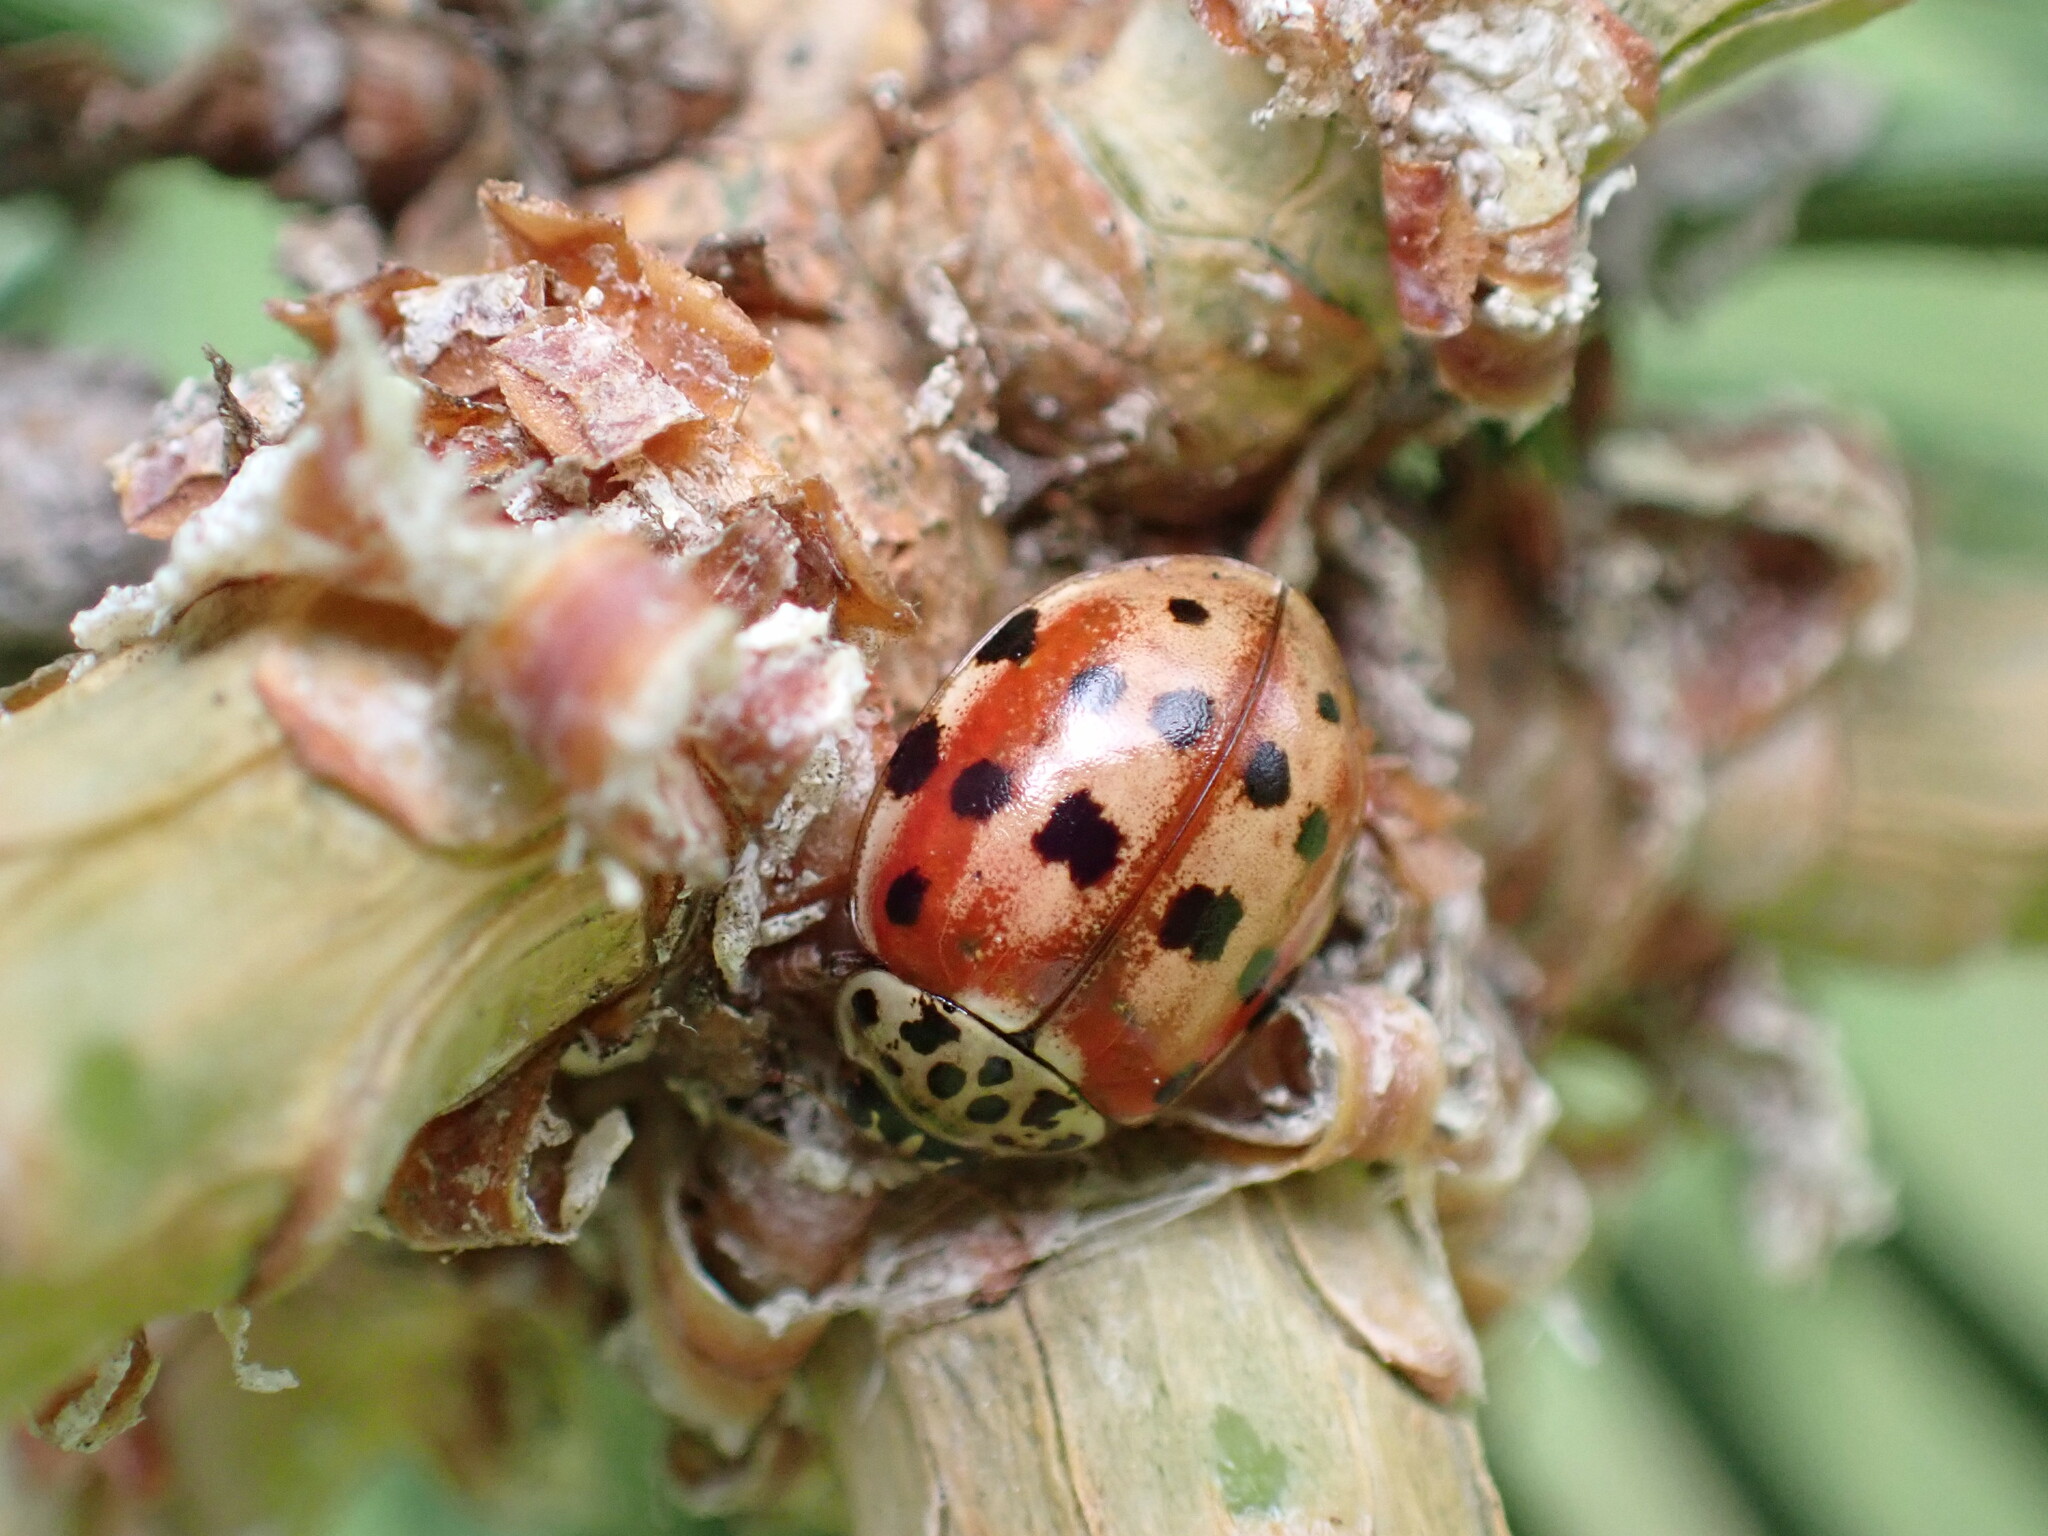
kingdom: Animalia
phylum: Arthropoda
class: Insecta
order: Coleoptera
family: Coccinellidae
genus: Harmonia
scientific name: Harmonia quadripunctata
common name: Cream-streaked ladybird
